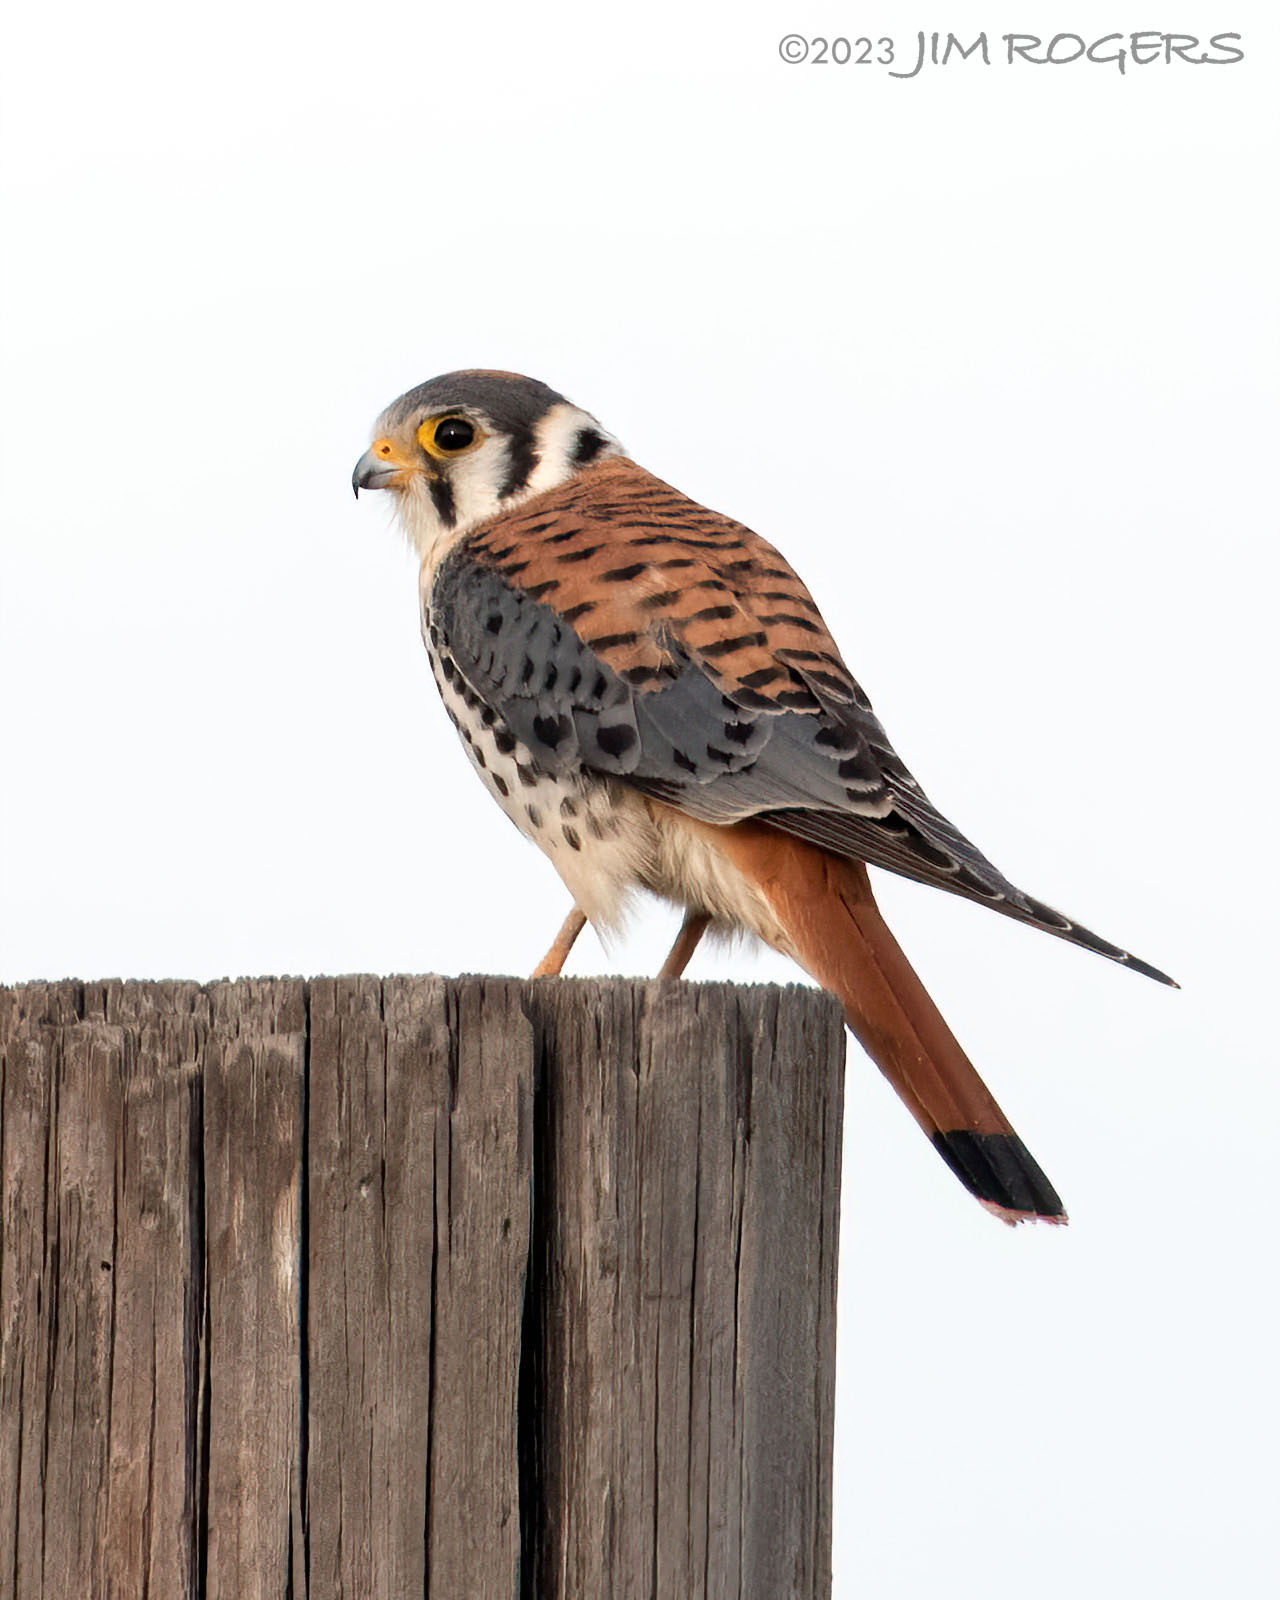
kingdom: Animalia
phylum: Chordata
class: Aves
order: Falconiformes
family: Falconidae
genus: Falco
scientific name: Falco sparverius
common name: American kestrel
